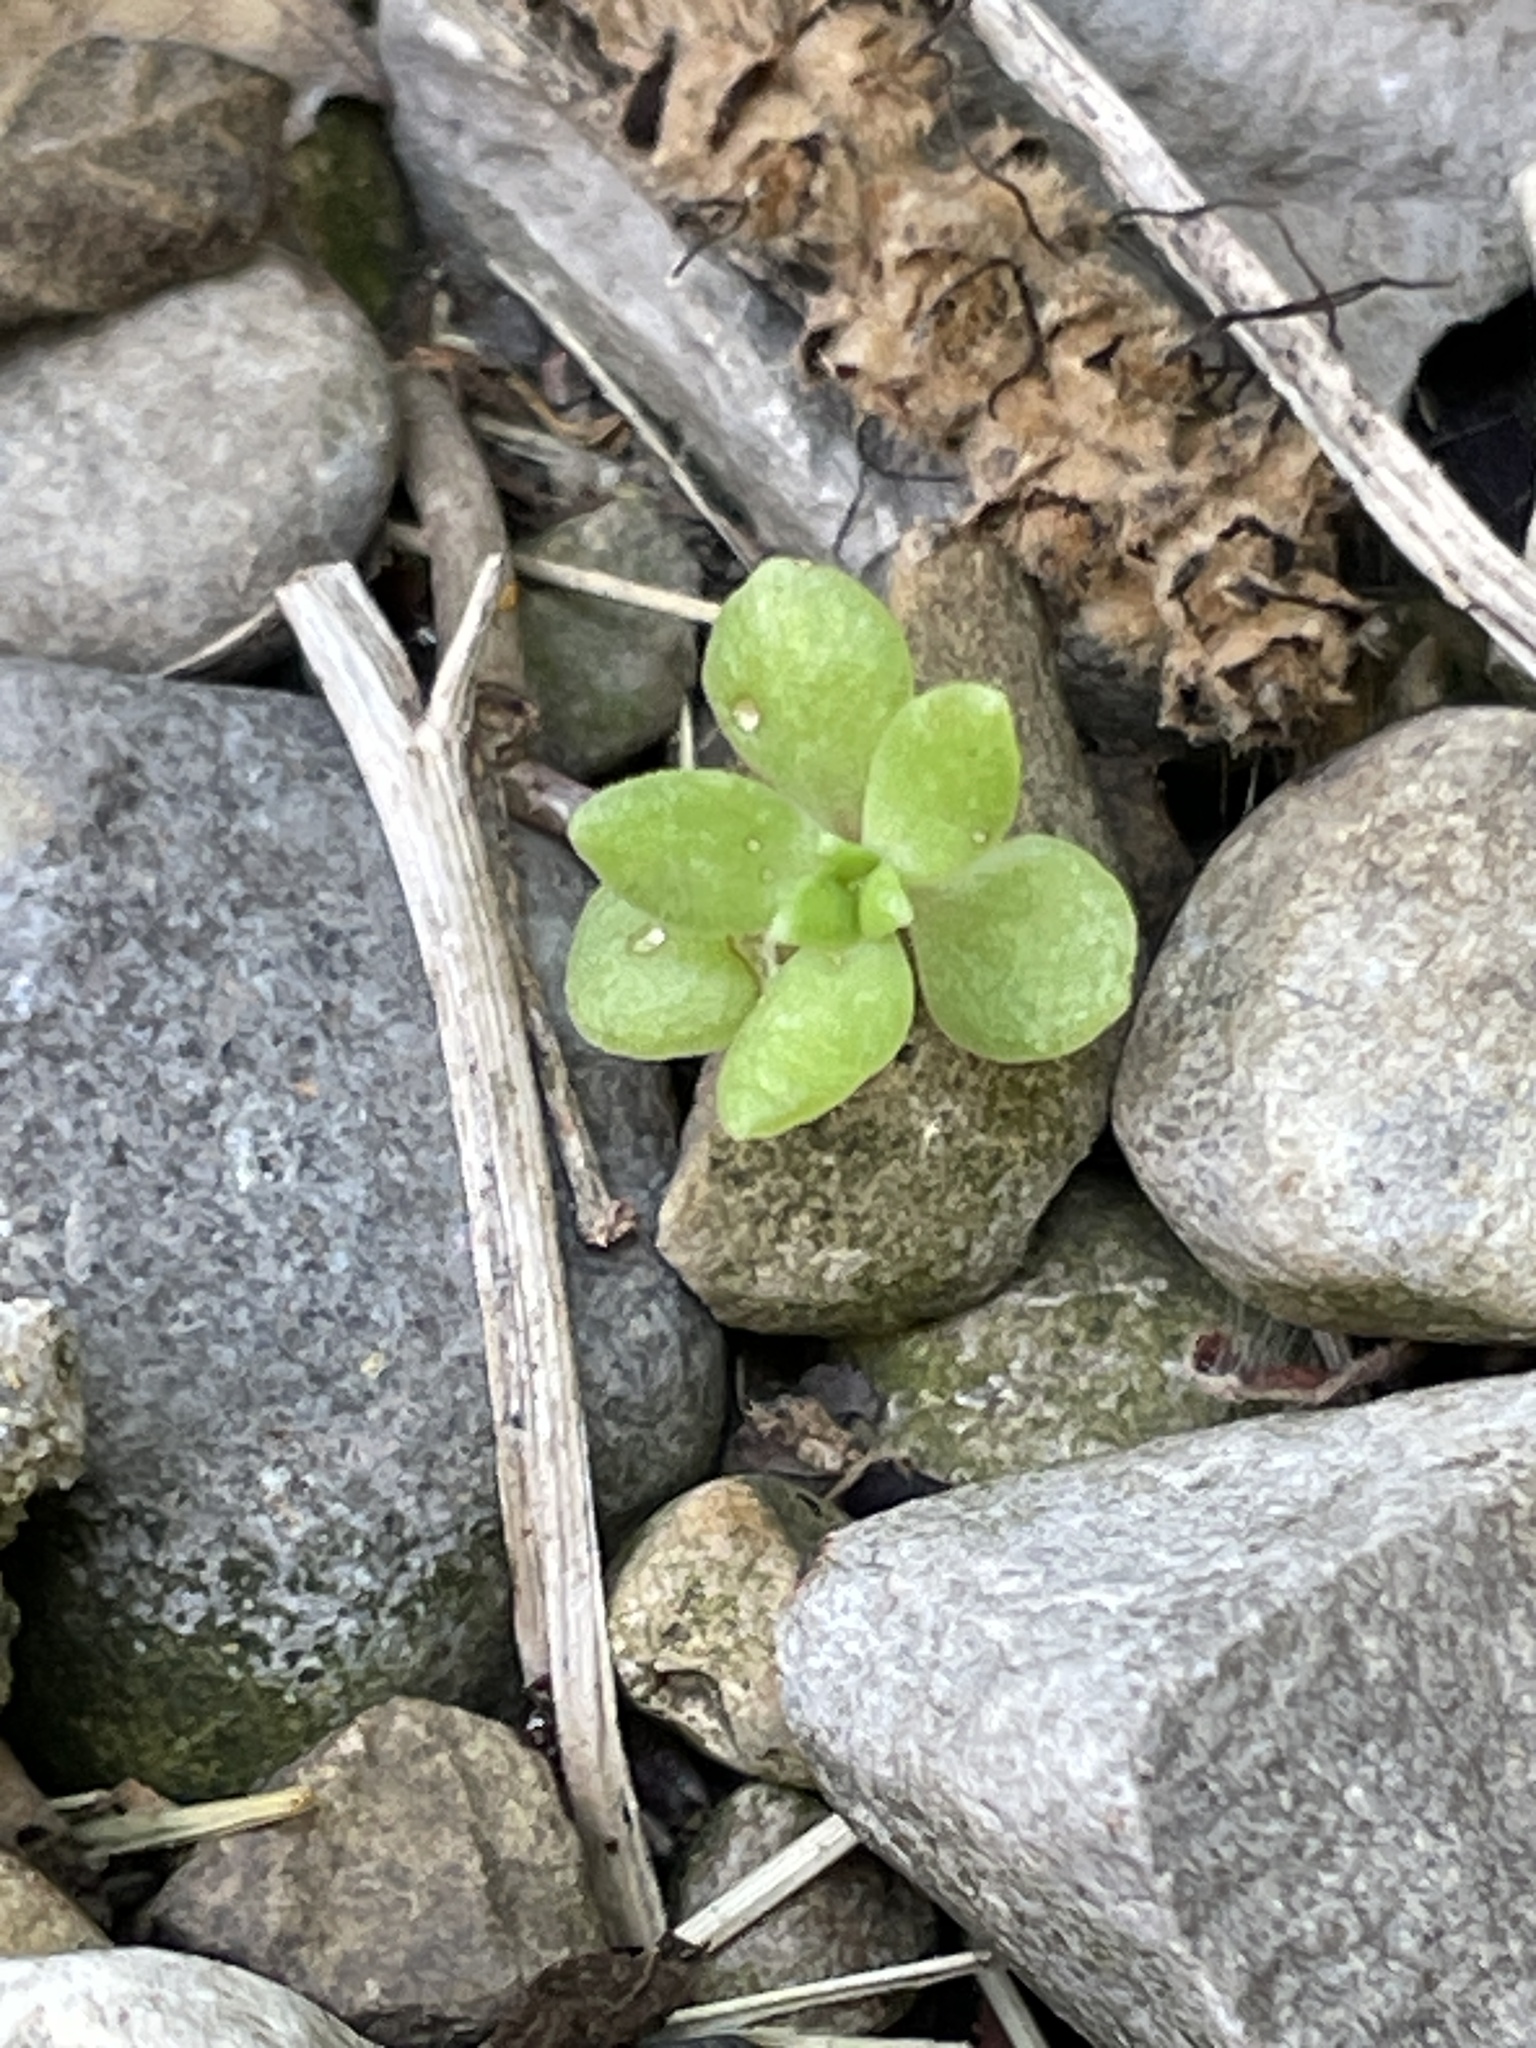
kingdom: Plantae
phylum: Tracheophyta
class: Magnoliopsida
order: Saxifragales
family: Crassulaceae
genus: Sedum
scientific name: Sedum sarmentosum
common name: Stringy stonecrop
